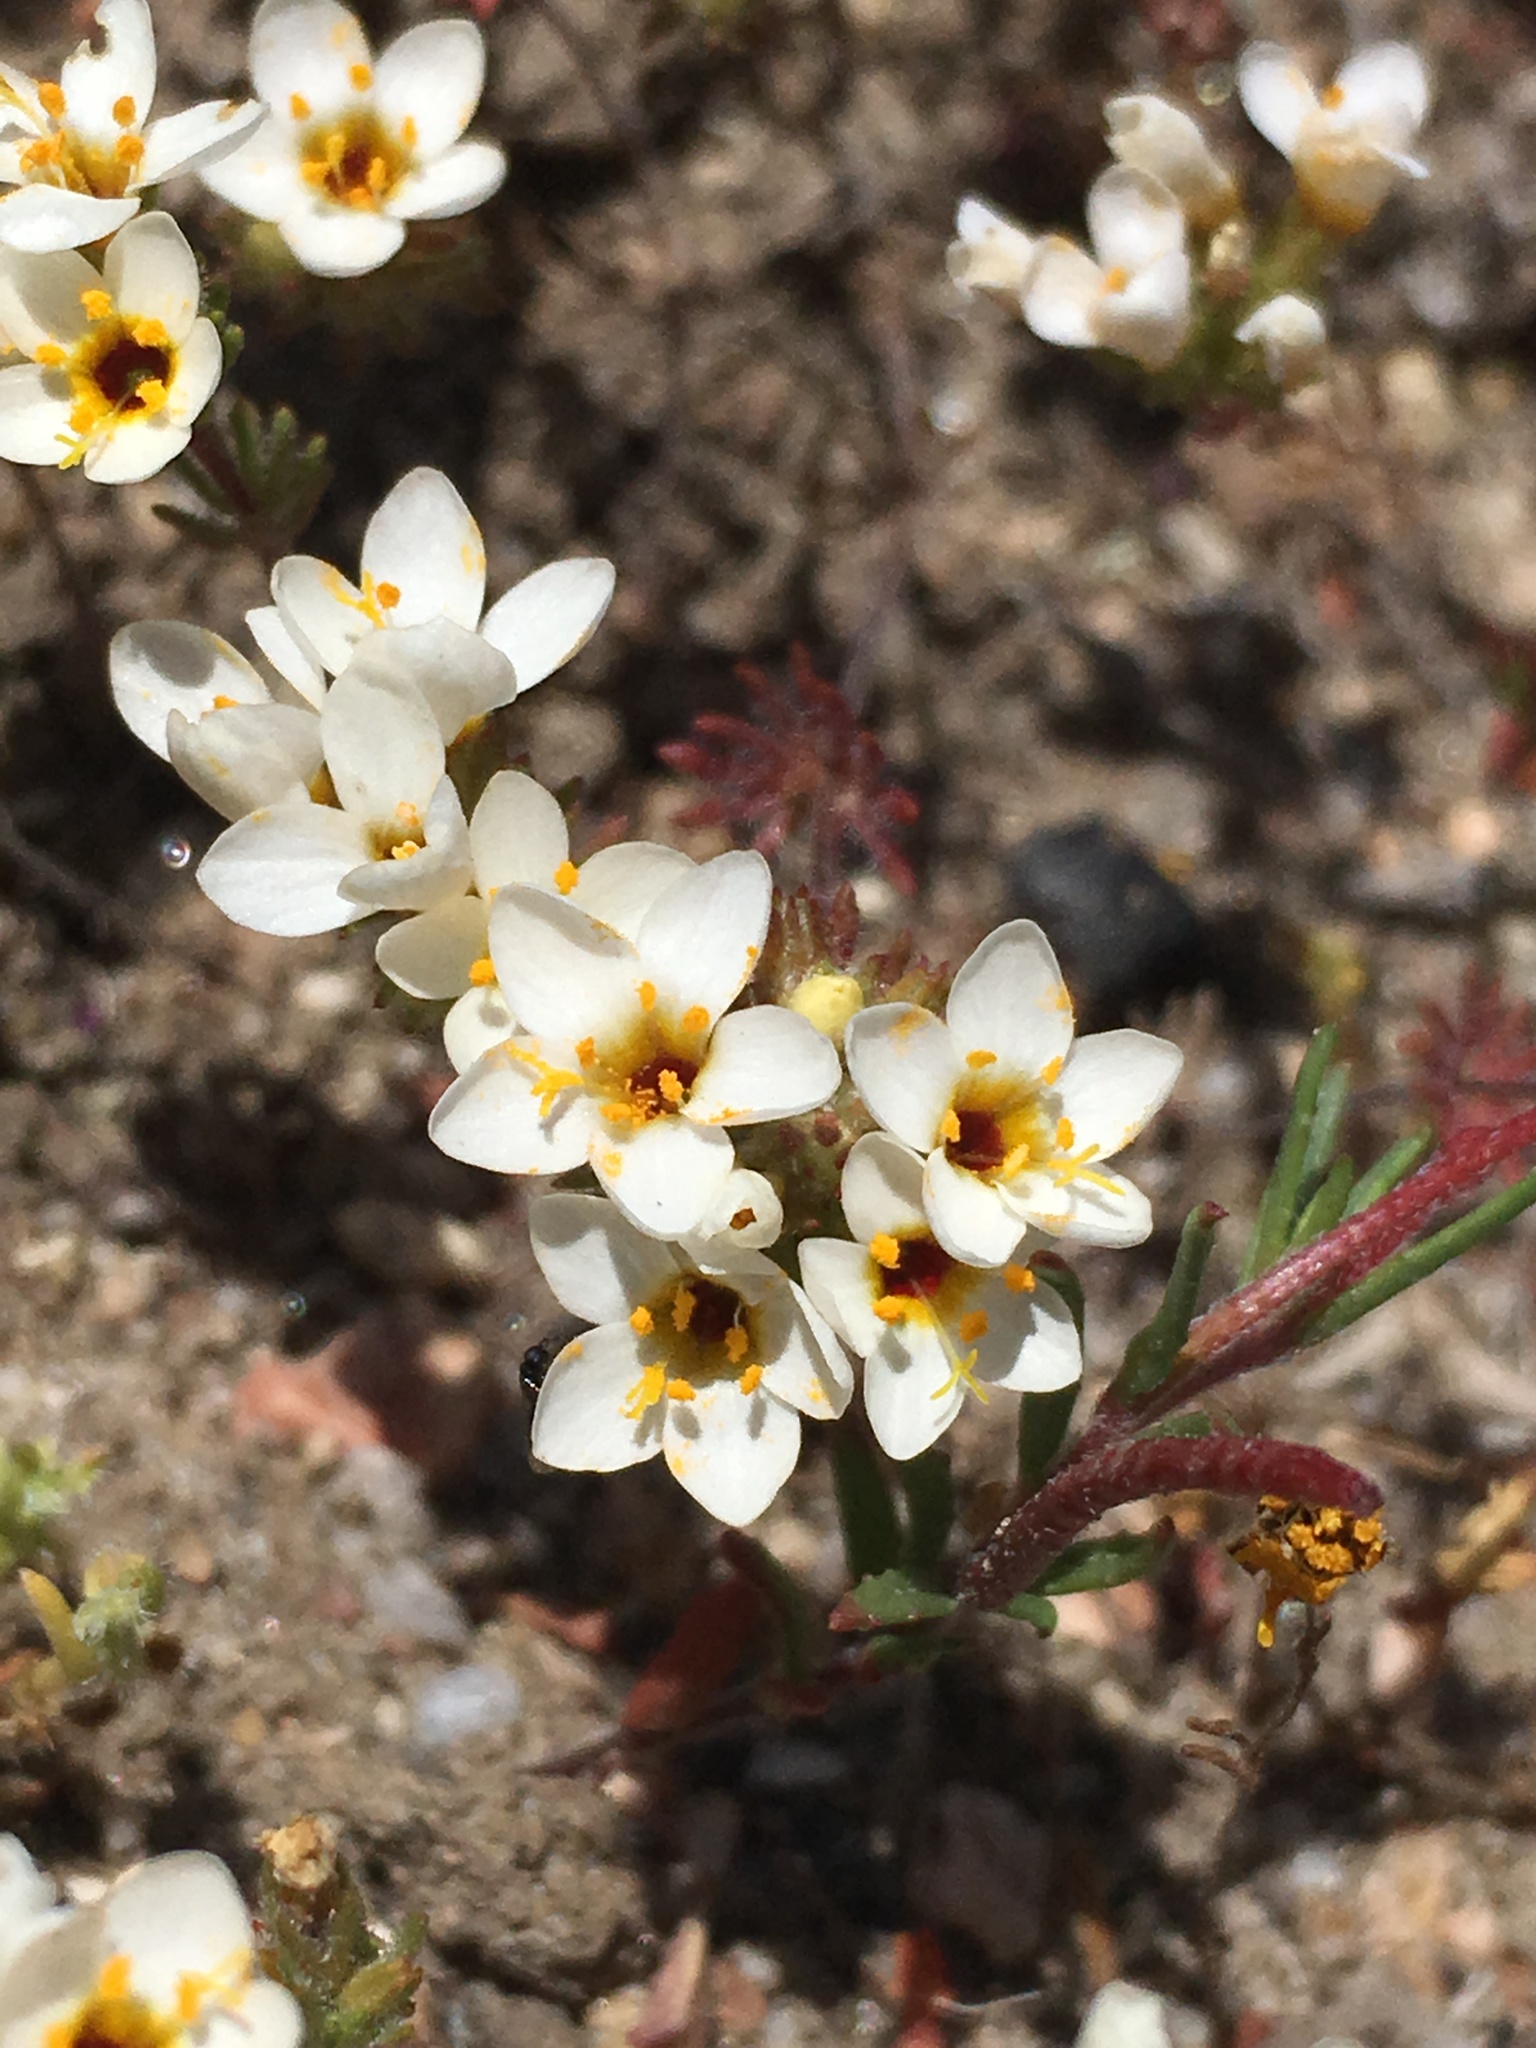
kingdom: Plantae
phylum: Tracheophyta
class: Magnoliopsida
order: Ericales
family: Polemoniaceae
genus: Leptosiphon
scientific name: Leptosiphon lemmonii
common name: Lemmon's linanthus
